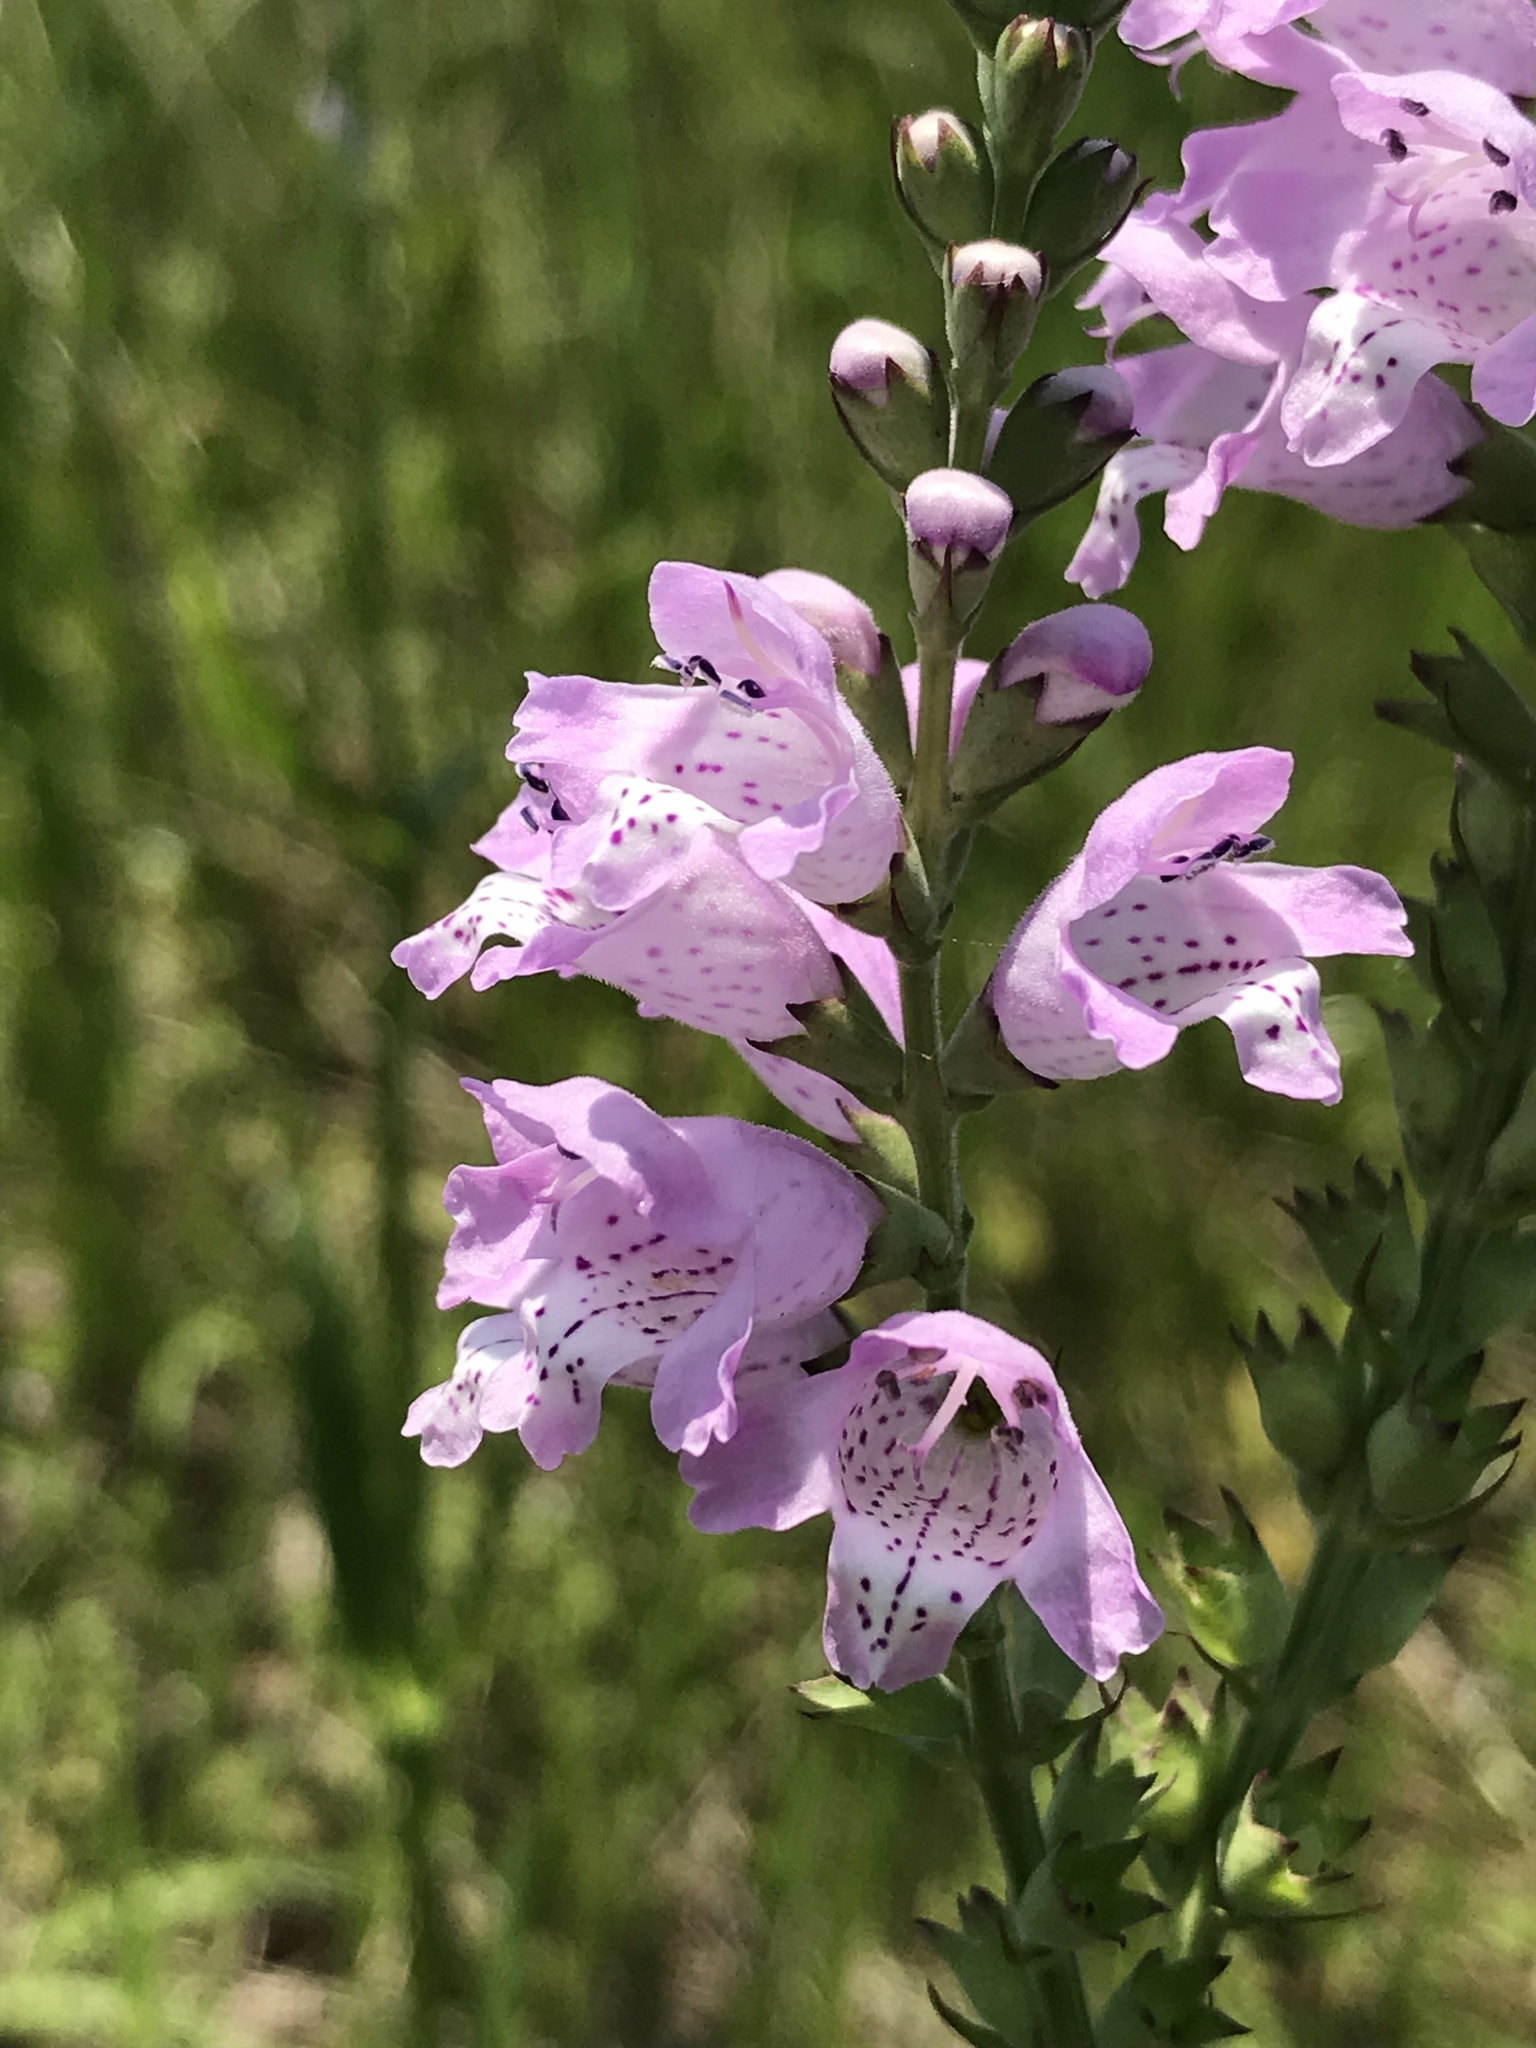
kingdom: Plantae
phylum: Tracheophyta
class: Magnoliopsida
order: Lamiales
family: Lamiaceae
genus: Physostegia
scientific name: Physostegia intermedia
